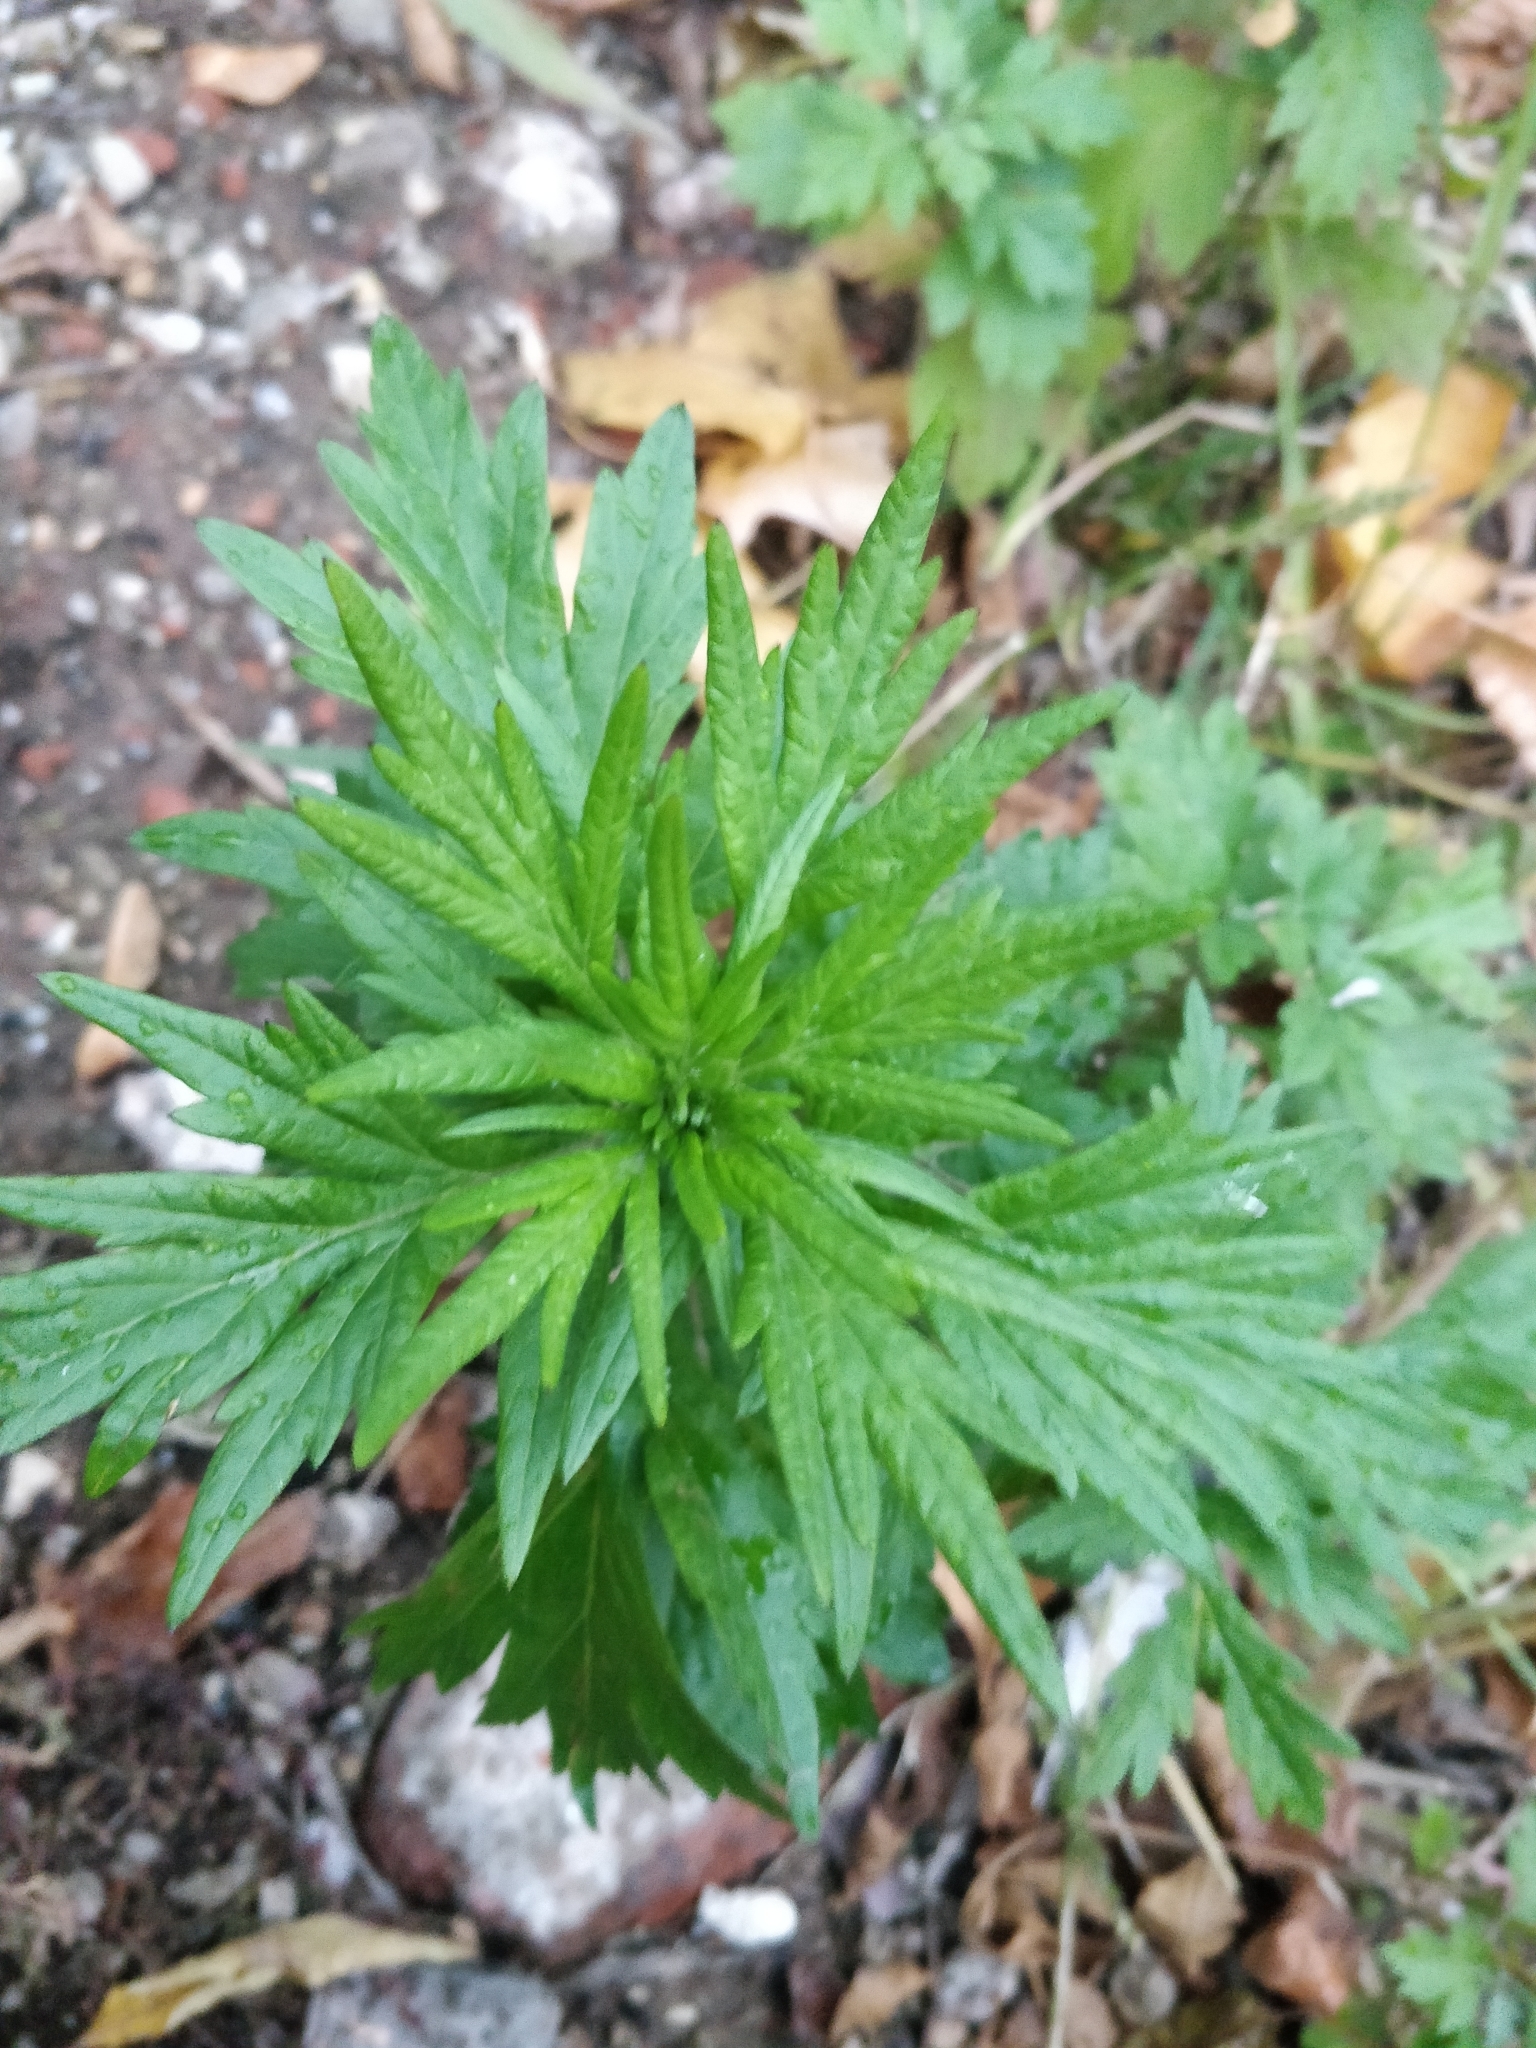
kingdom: Plantae
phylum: Tracheophyta
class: Magnoliopsida
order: Asterales
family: Asteraceae
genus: Artemisia
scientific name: Artemisia vulgaris
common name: Mugwort
